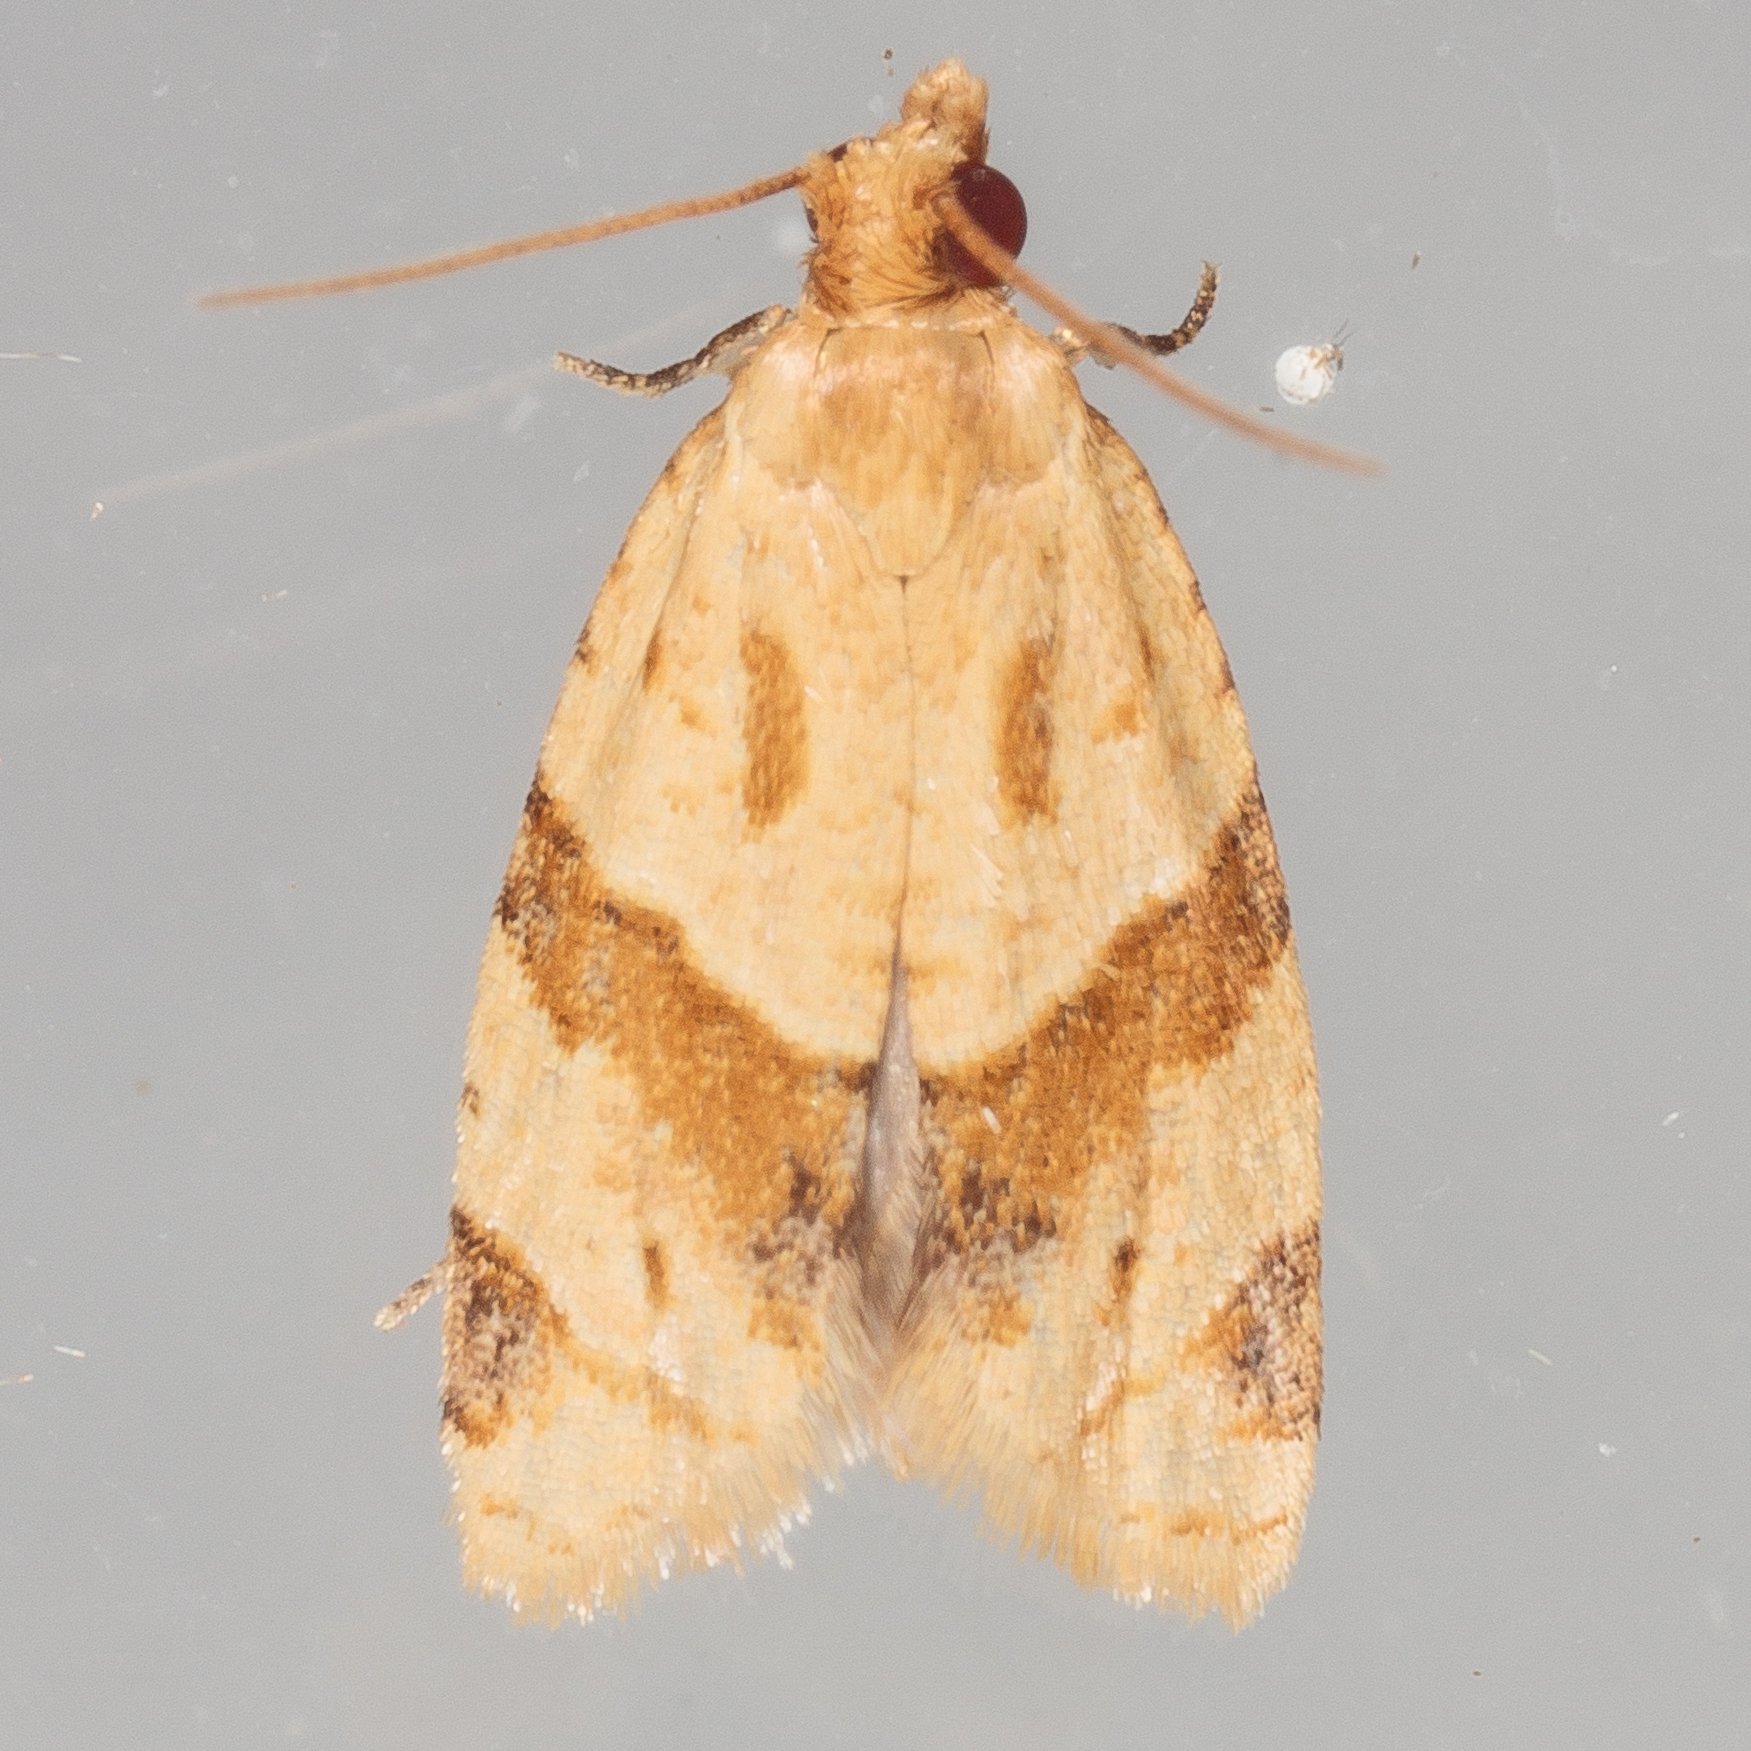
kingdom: Animalia
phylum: Arthropoda
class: Insecta
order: Lepidoptera
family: Tortricidae
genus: Clepsis
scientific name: Clepsis peritana
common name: Garden tortrix
